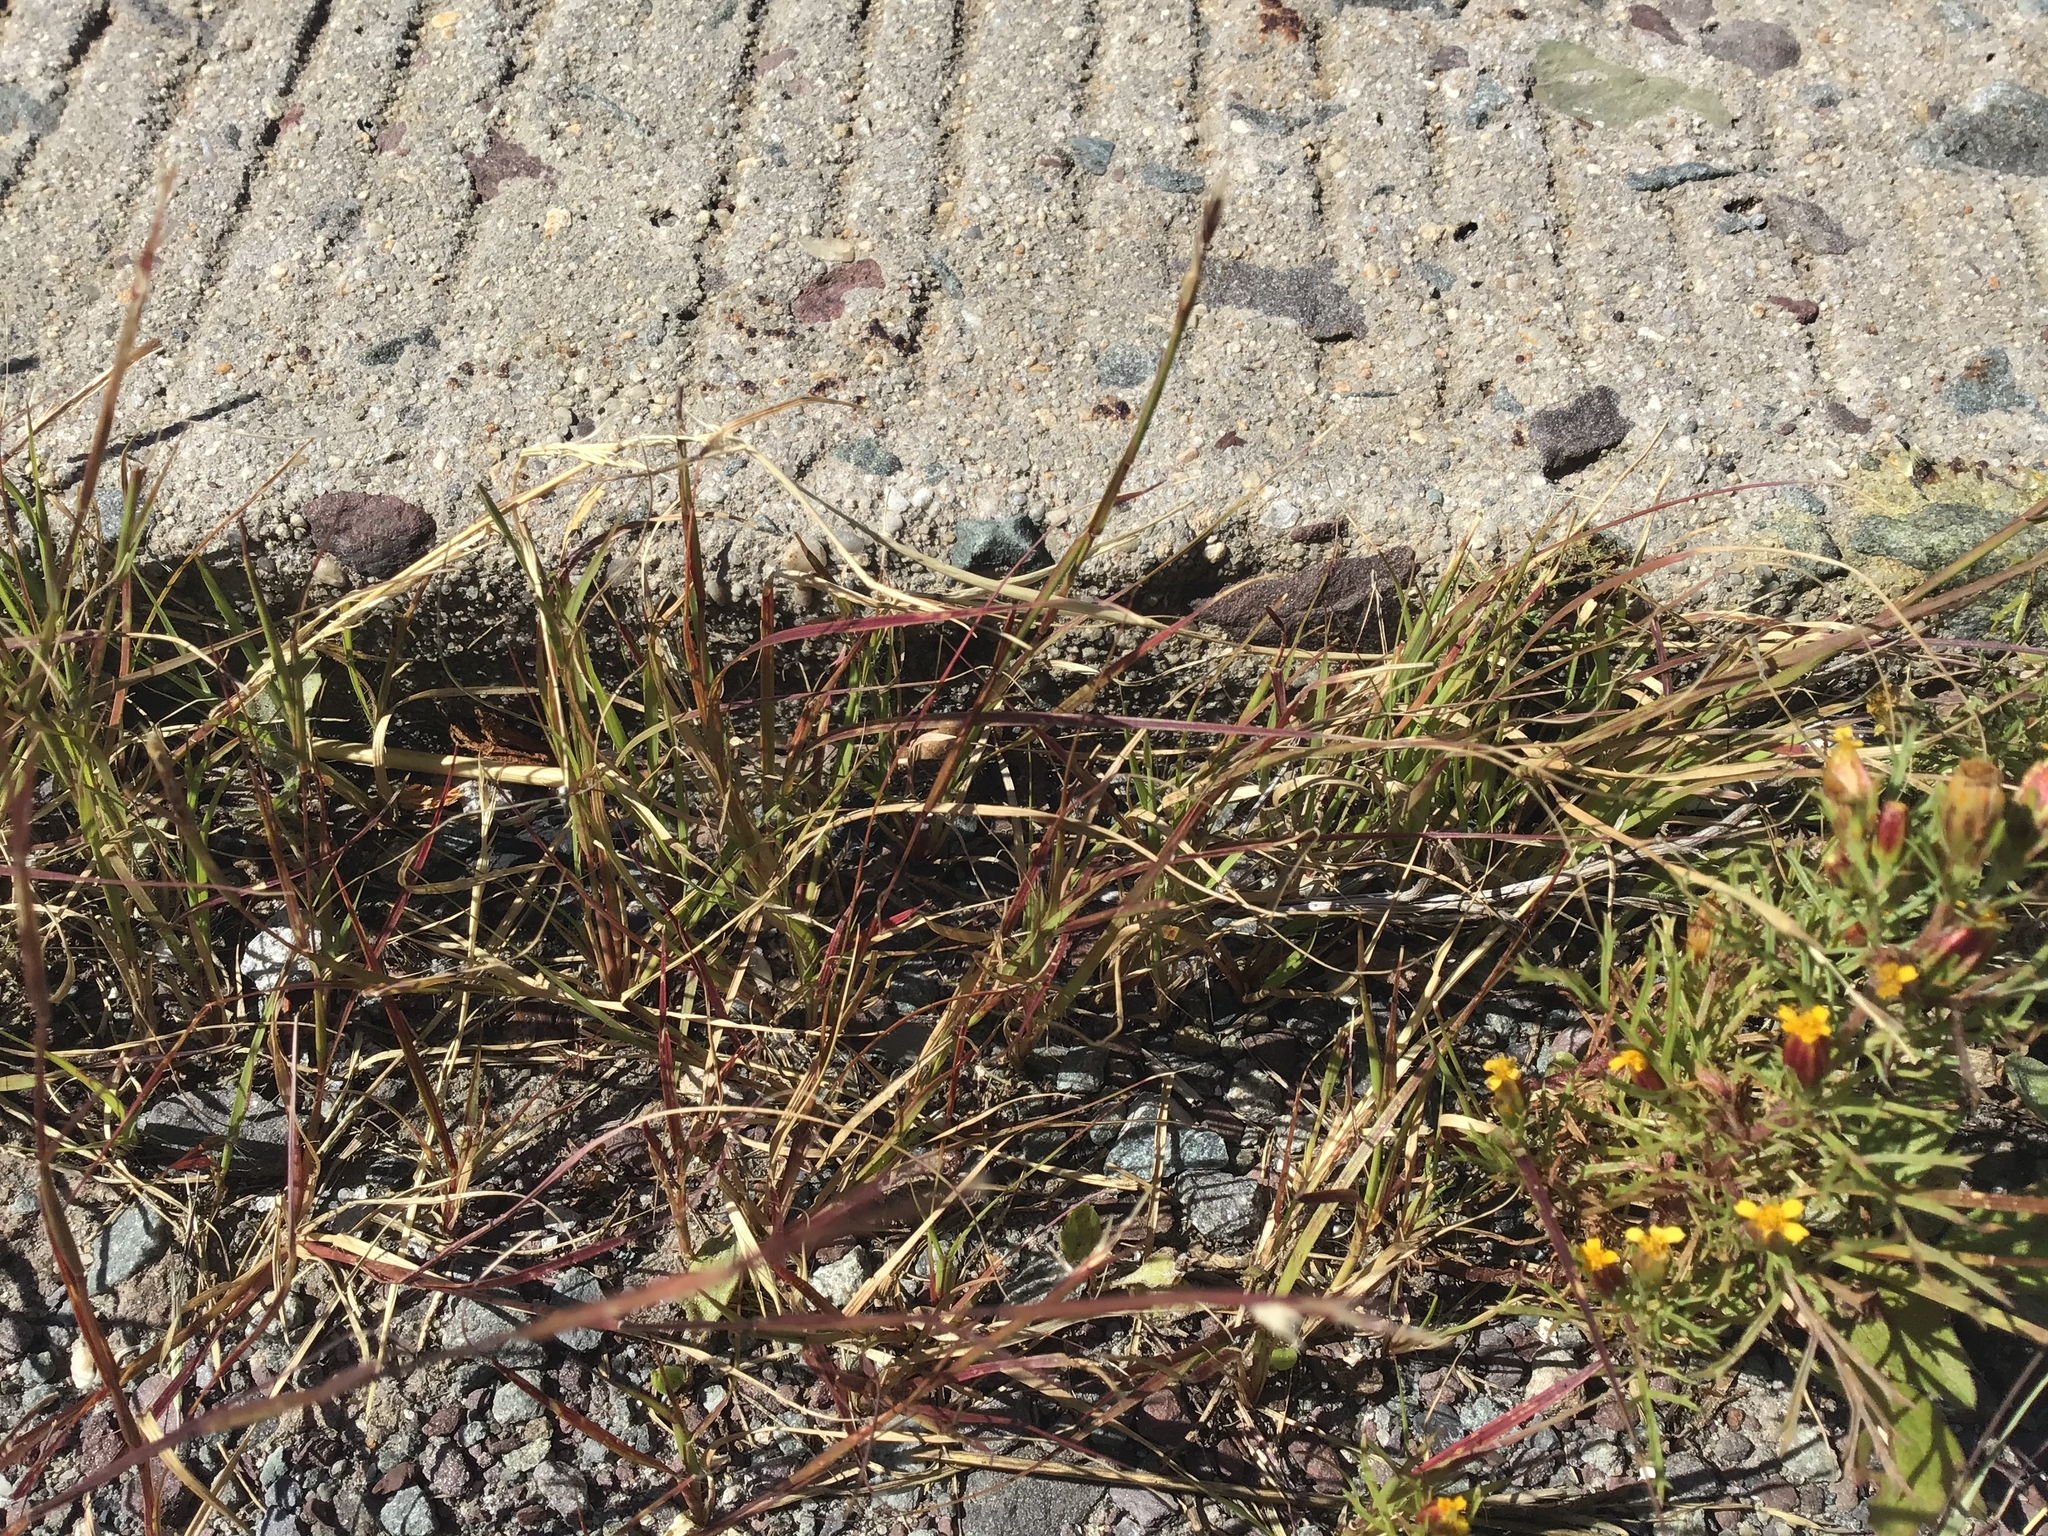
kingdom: Plantae
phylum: Tracheophyta
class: Magnoliopsida
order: Asterales
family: Asteraceae
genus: Dyssodia
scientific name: Dyssodia papposa
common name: Dogweed
